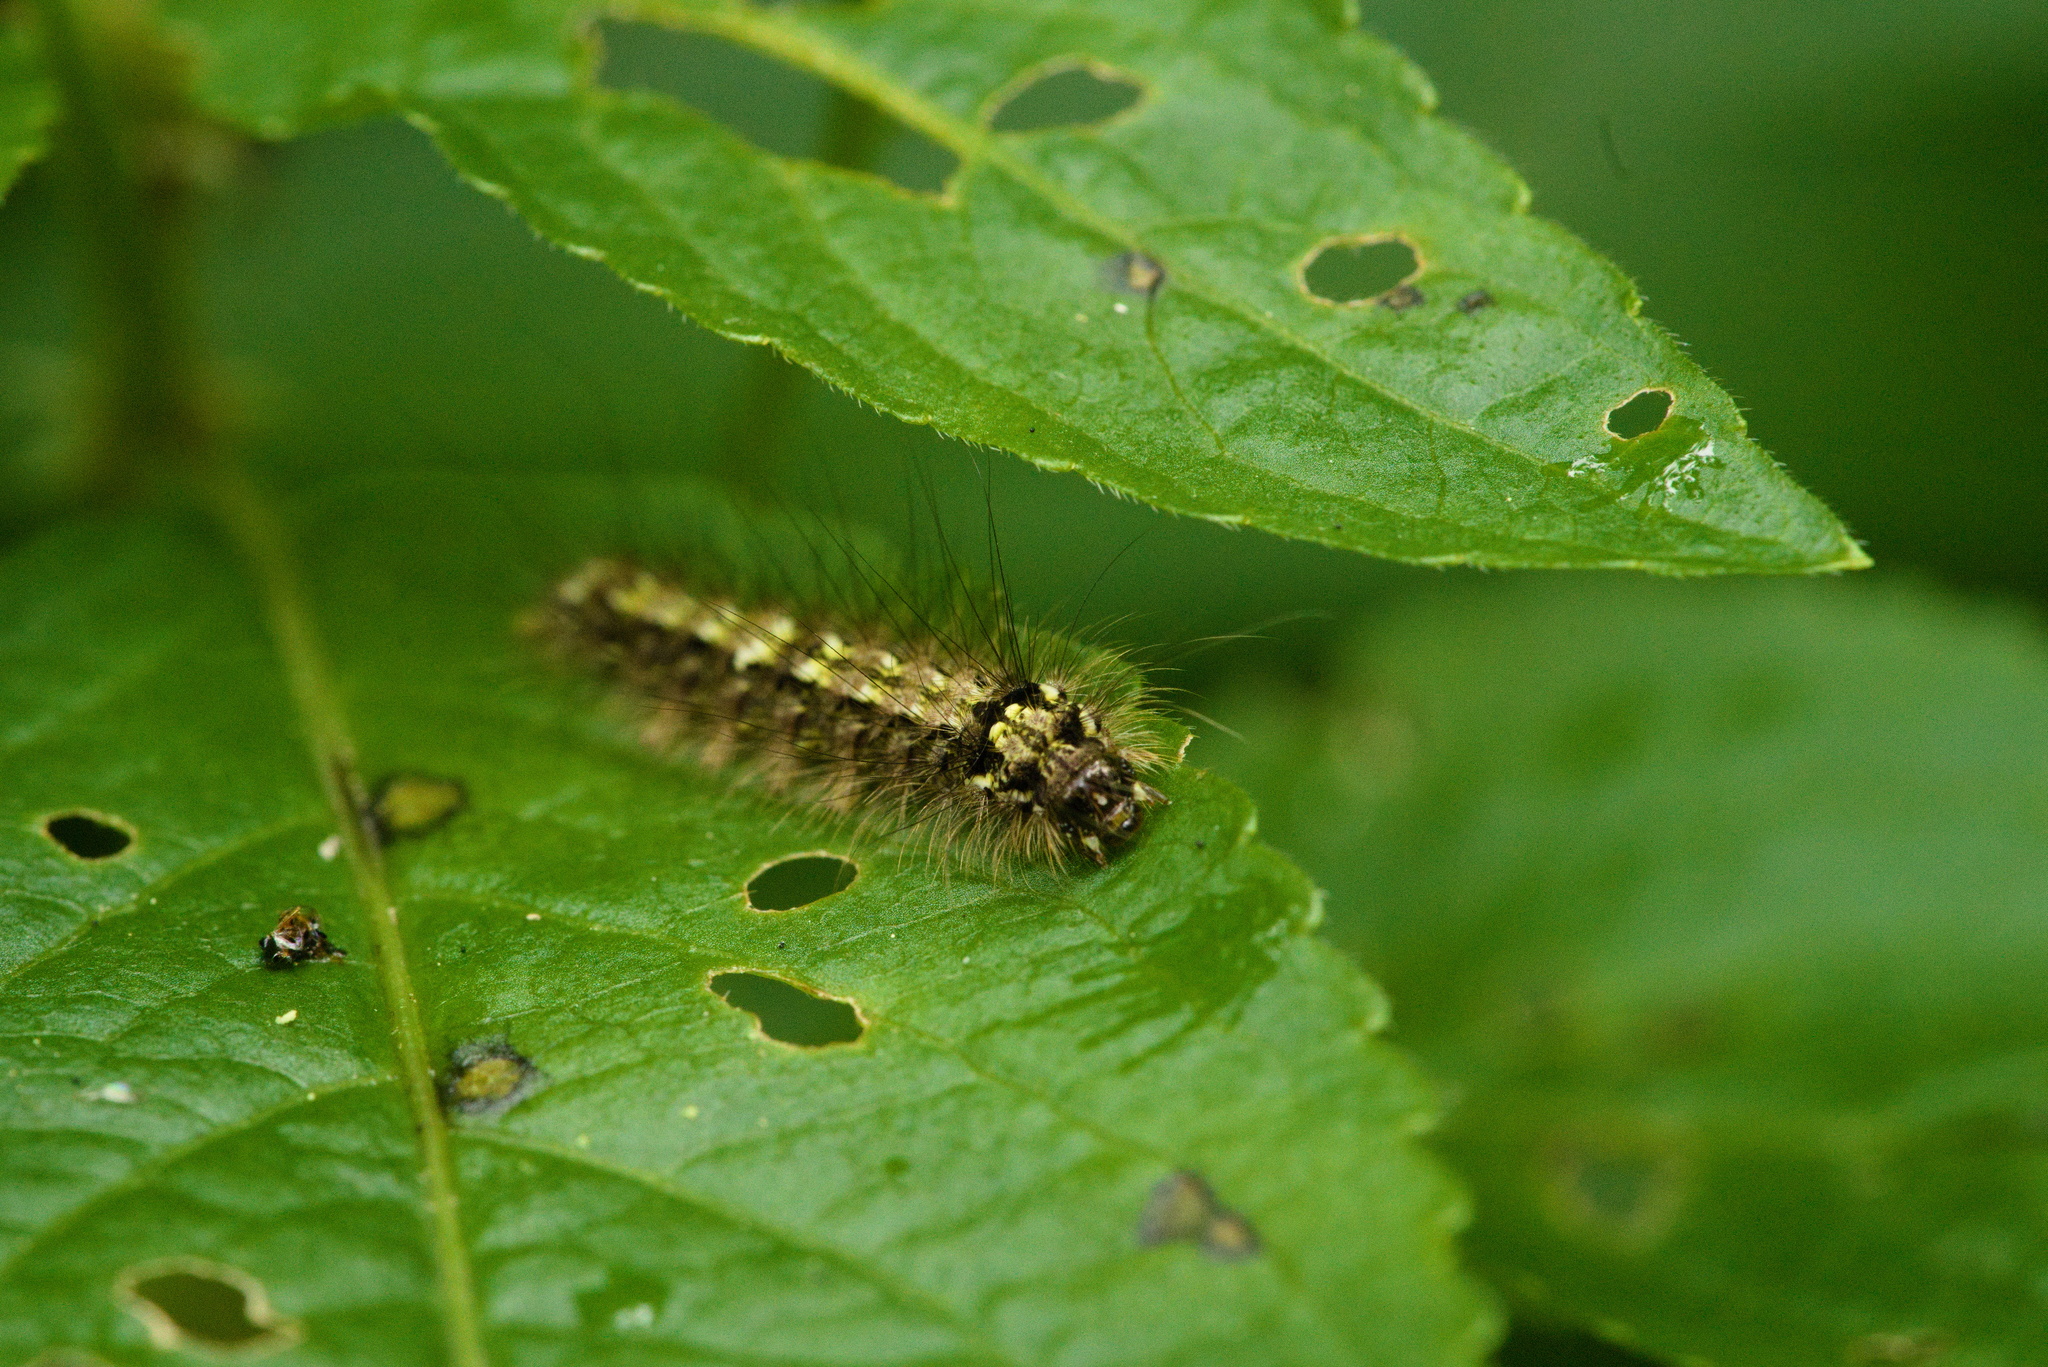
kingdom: Animalia
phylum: Arthropoda
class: Insecta
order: Lepidoptera
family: Erebidae
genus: Katha
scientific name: Katha depressa
